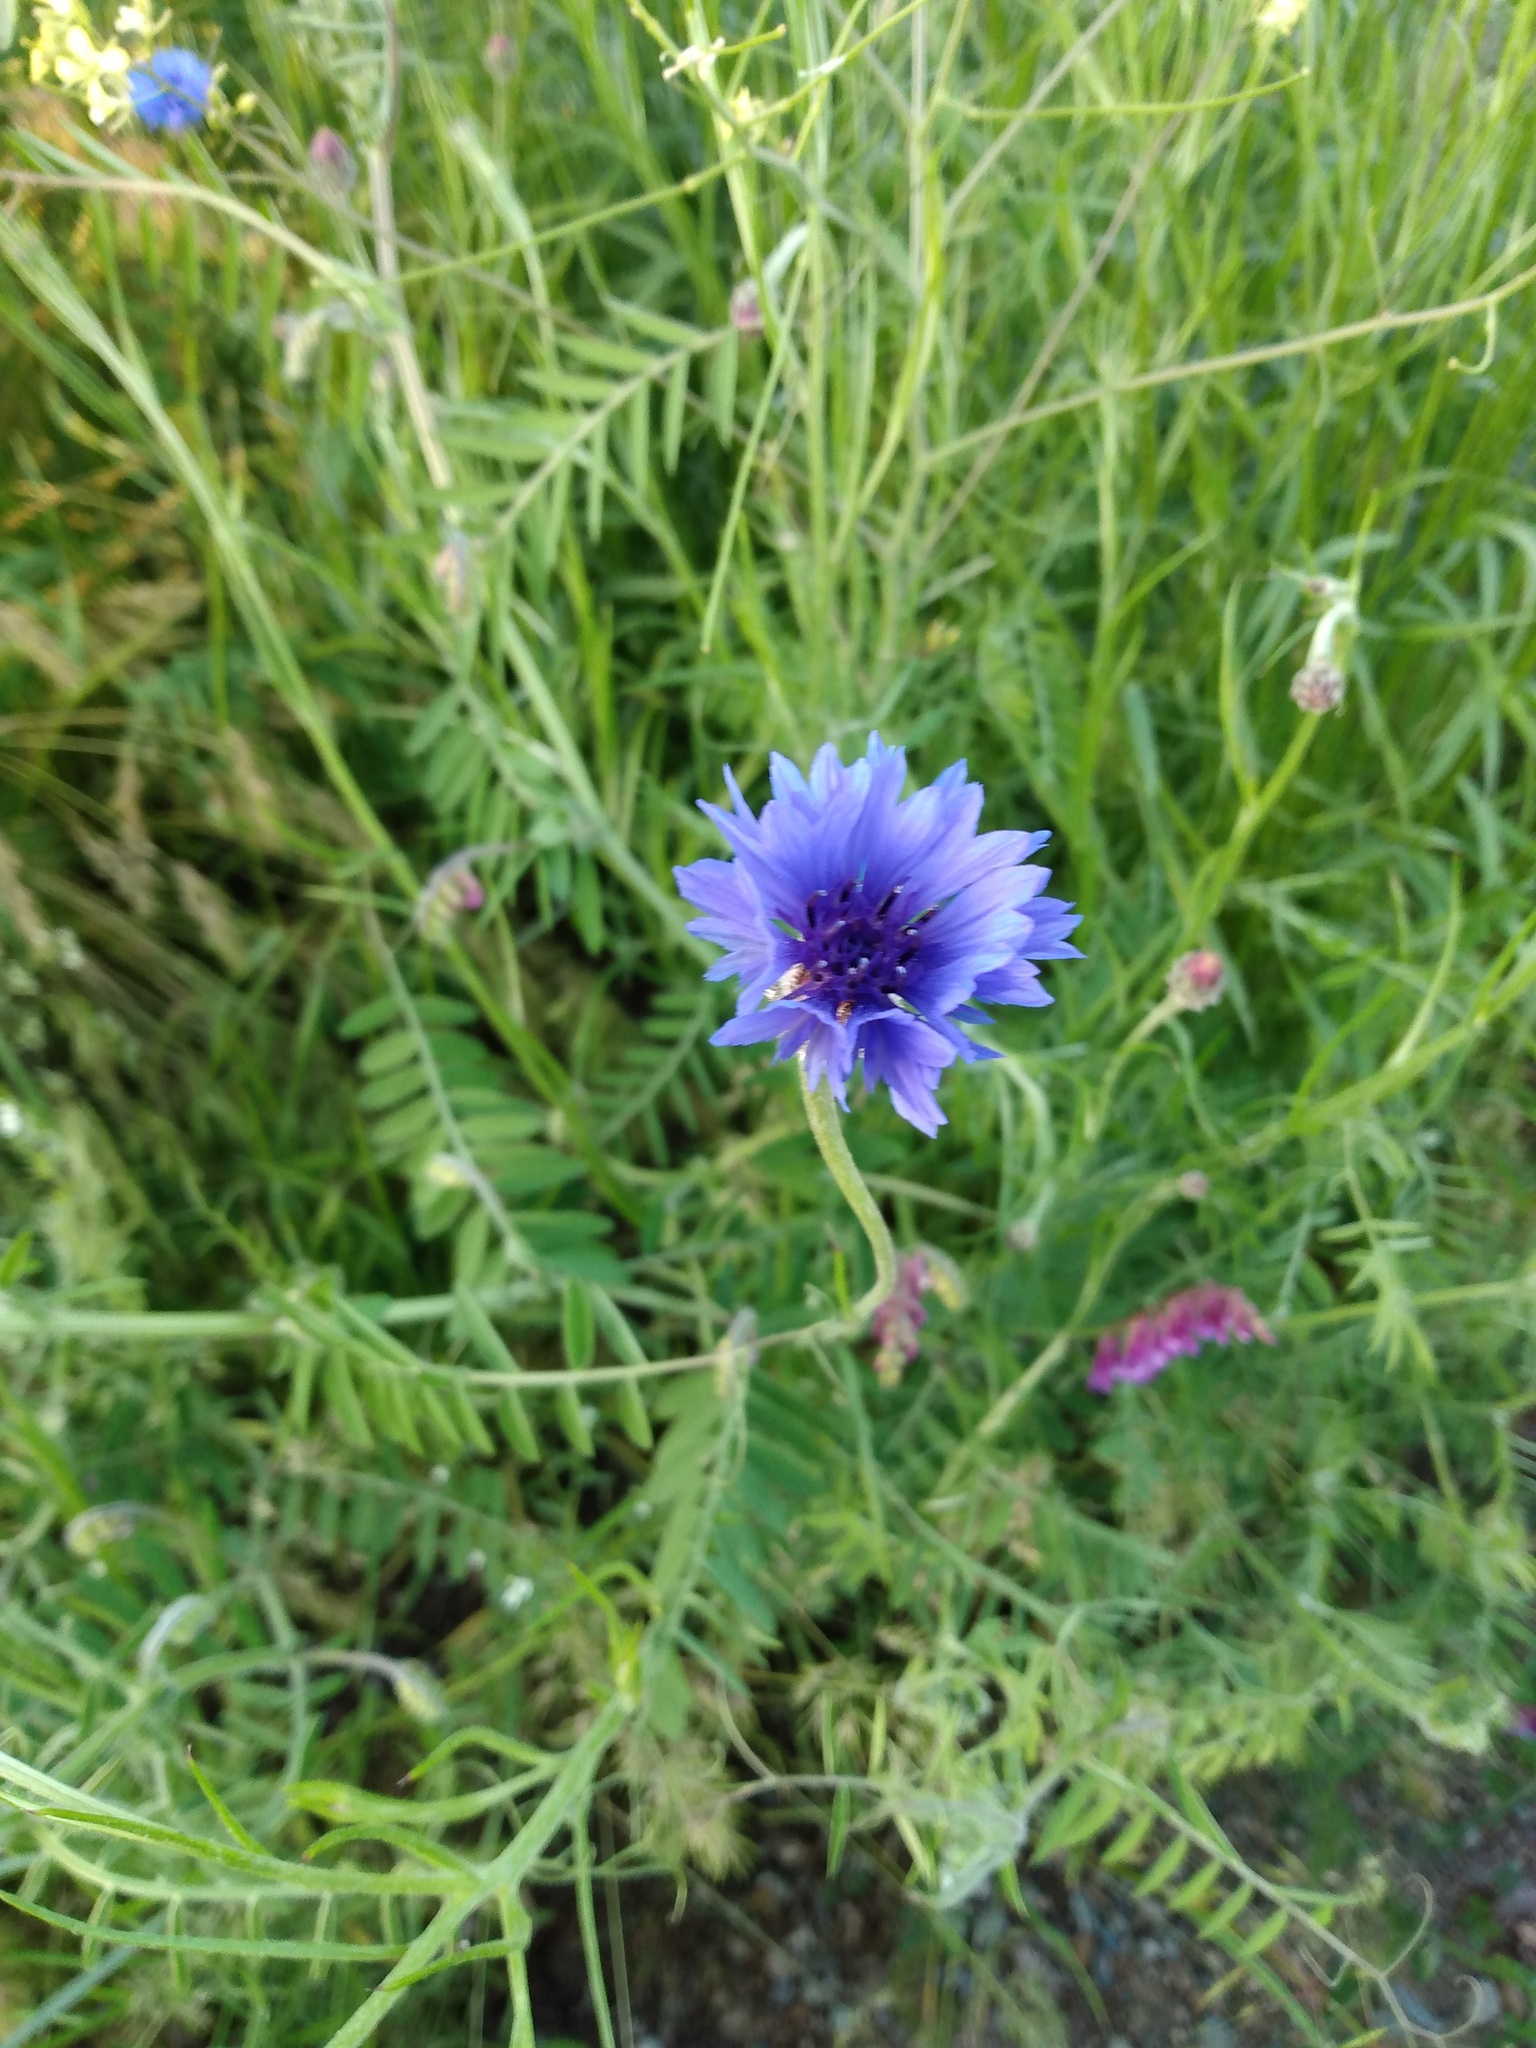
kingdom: Plantae
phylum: Tracheophyta
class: Magnoliopsida
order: Asterales
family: Asteraceae
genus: Centaurea
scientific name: Centaurea cyanus
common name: Cornflower
